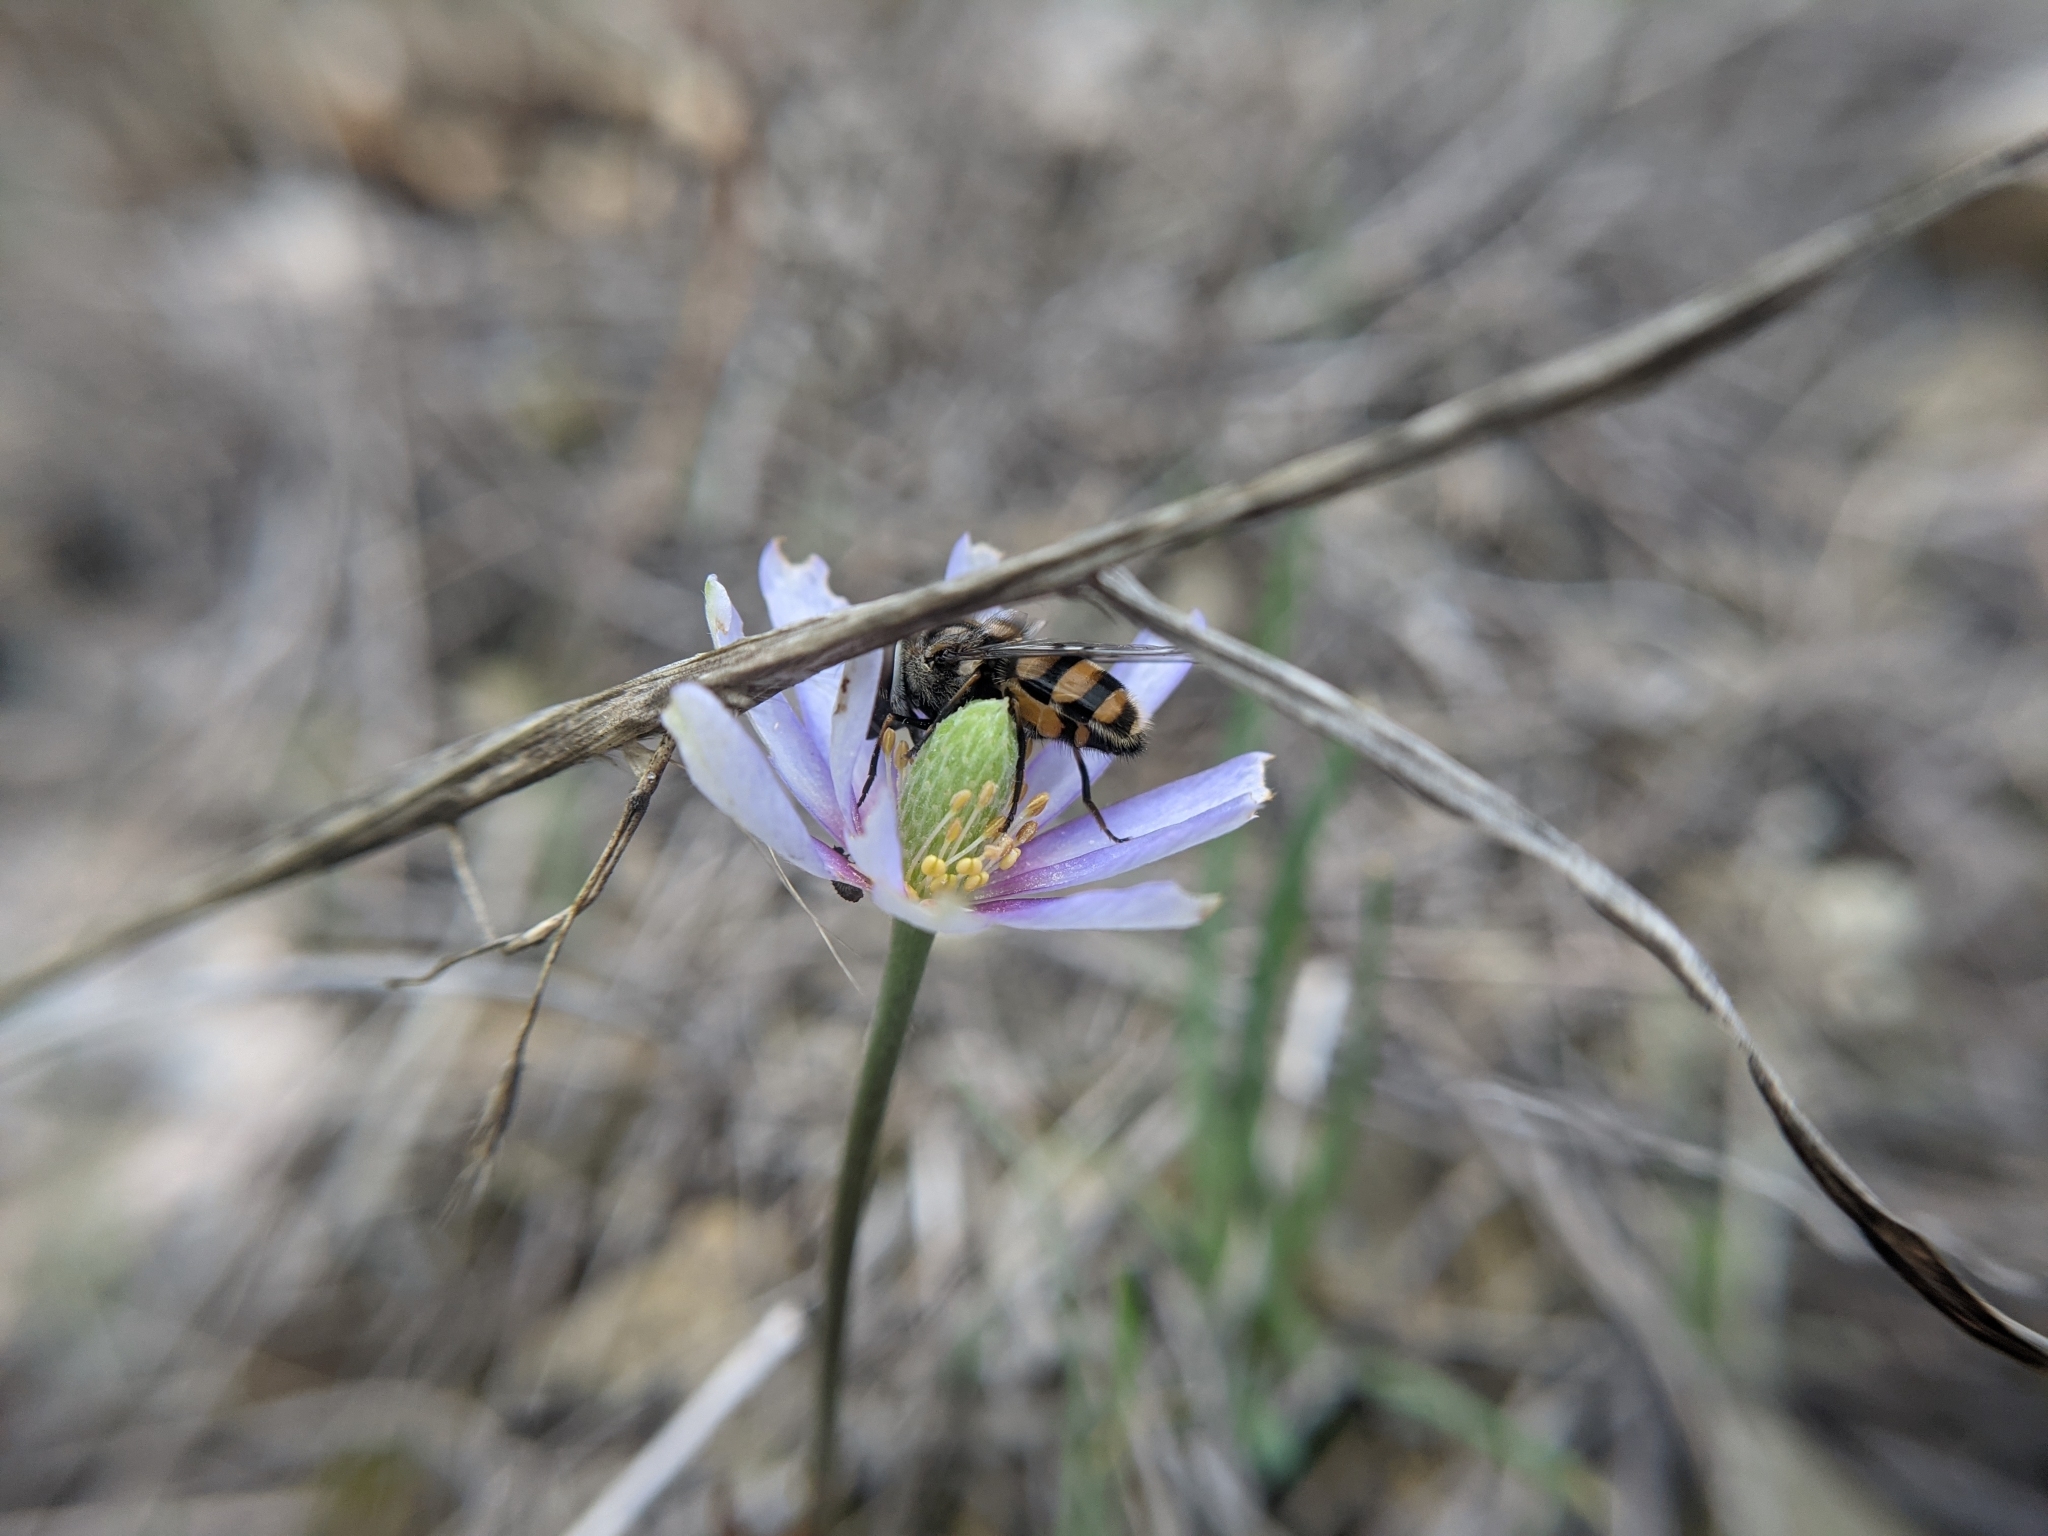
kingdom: Animalia
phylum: Arthropoda
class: Insecta
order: Diptera
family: Syrphidae
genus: Copestylum
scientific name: Copestylum avidum
